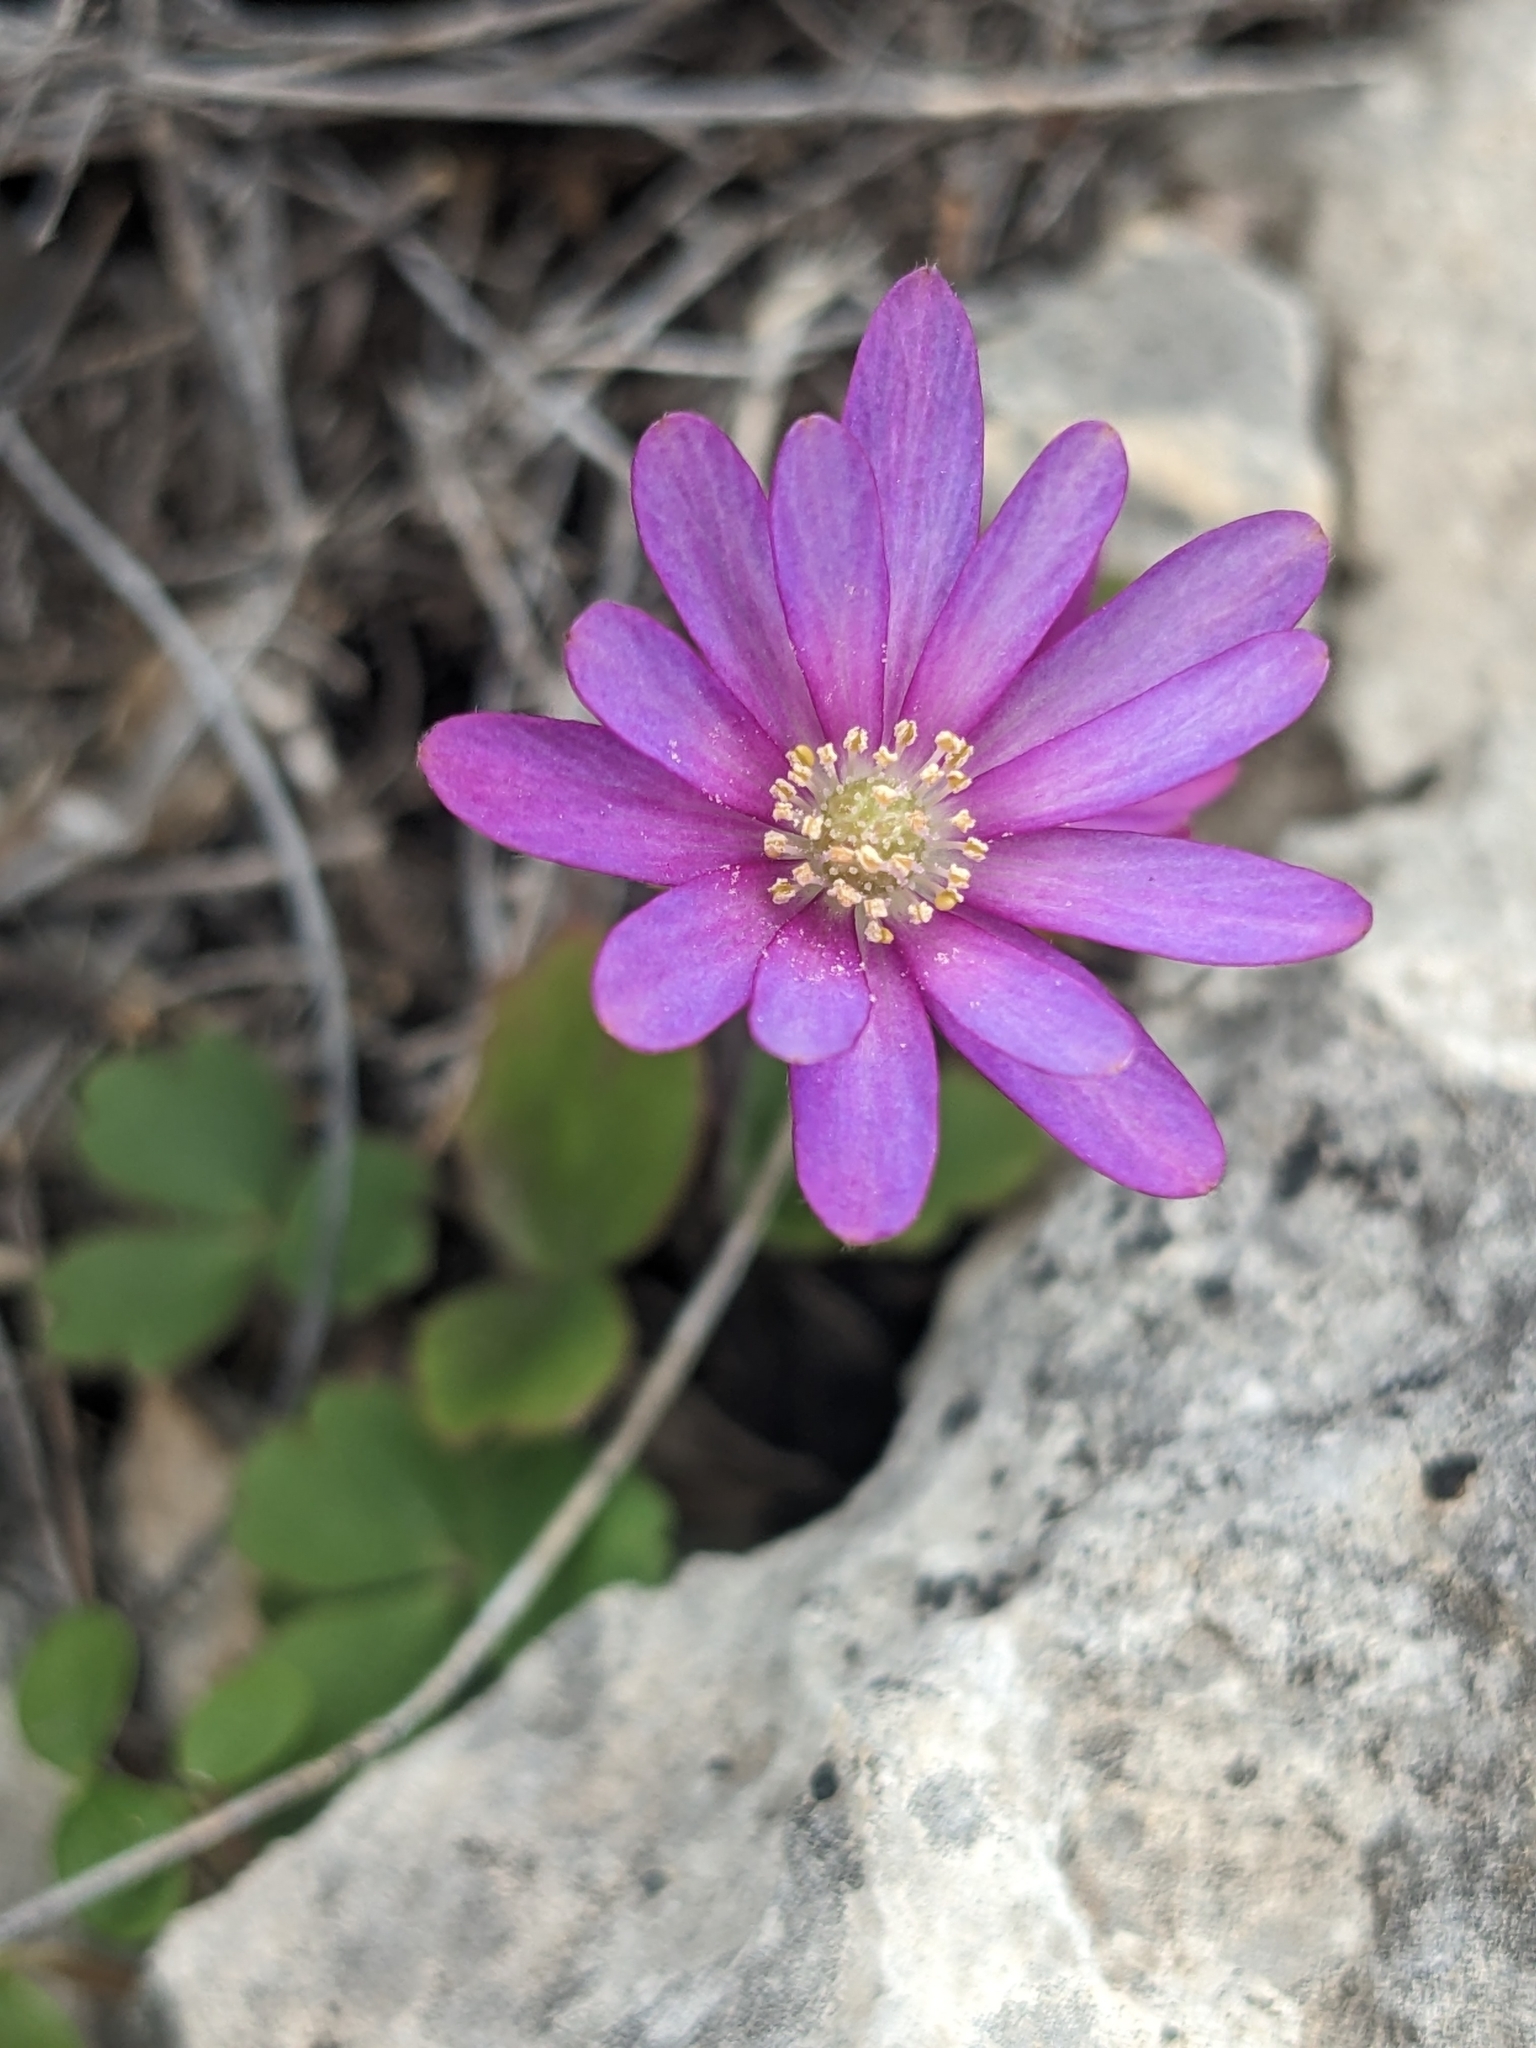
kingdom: Plantae
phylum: Tracheophyta
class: Magnoliopsida
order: Ranunculales
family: Ranunculaceae
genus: Anemone
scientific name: Anemone berlandieri
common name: Ten-petal anemone
